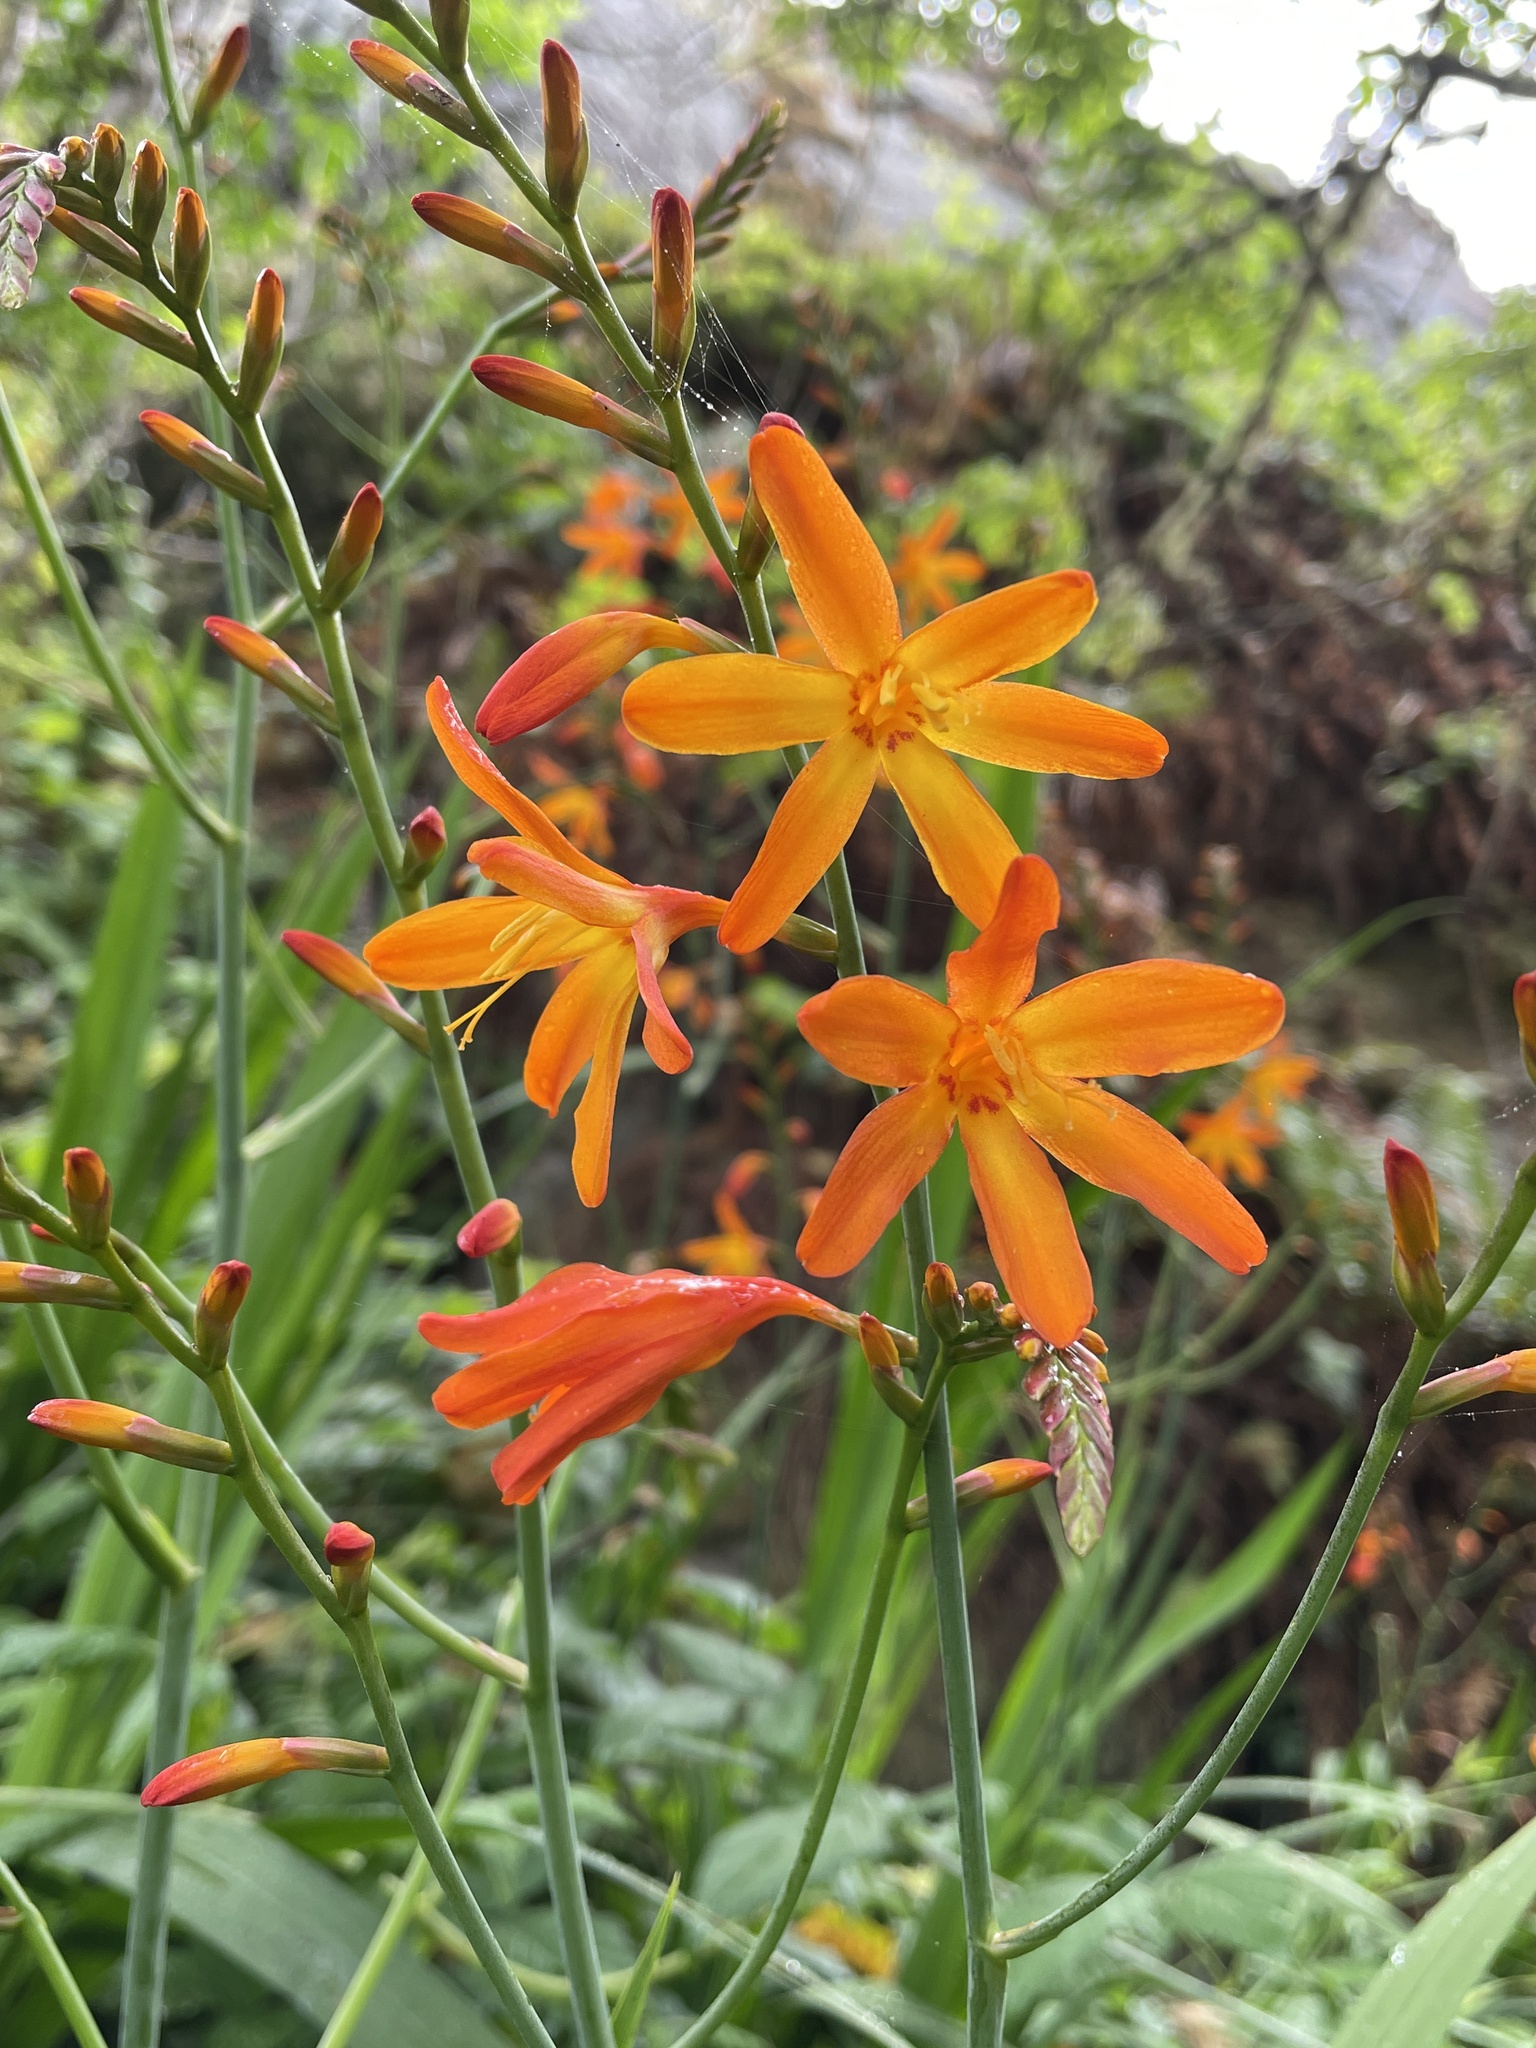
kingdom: Plantae
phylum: Tracheophyta
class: Liliopsida
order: Asparagales
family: Iridaceae
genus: Crocosmia
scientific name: Crocosmia crocosmiiflora
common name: Montbretia
